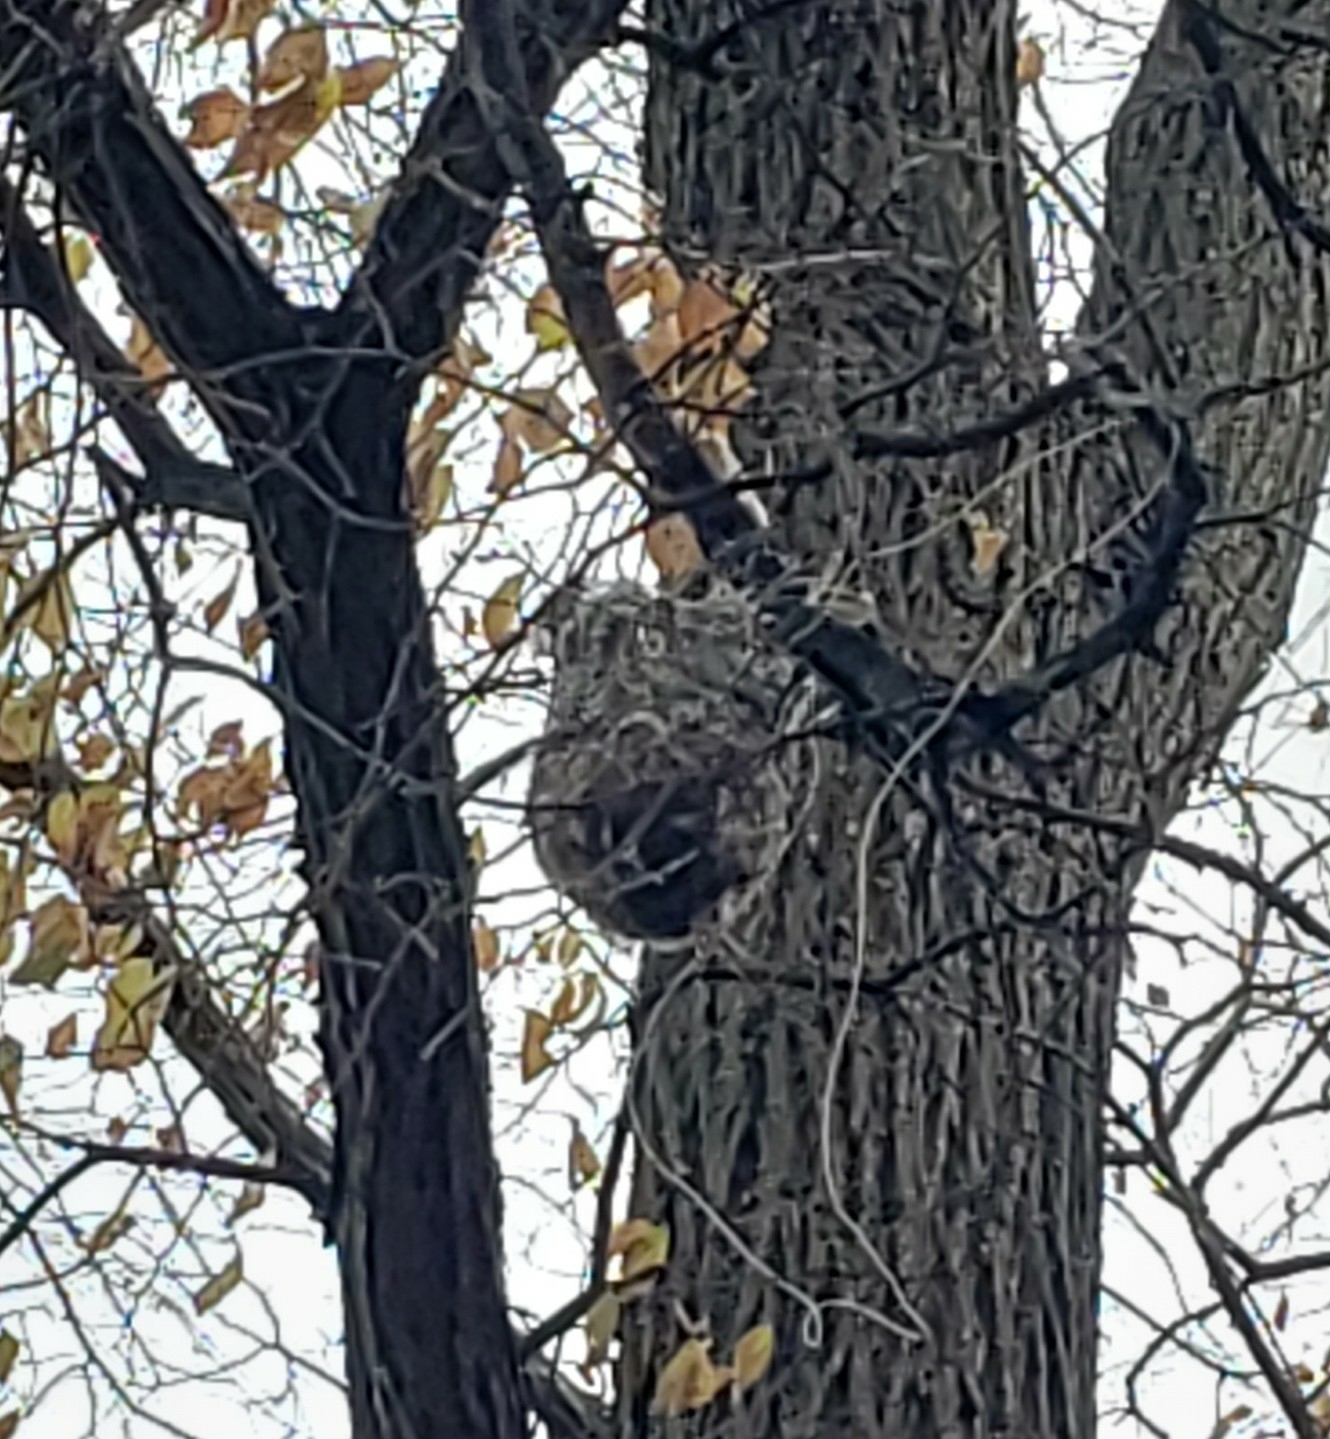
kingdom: Animalia
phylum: Chordata
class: Aves
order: Passeriformes
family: Icteridae
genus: Icterus
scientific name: Icterus galbula
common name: Baltimore oriole
